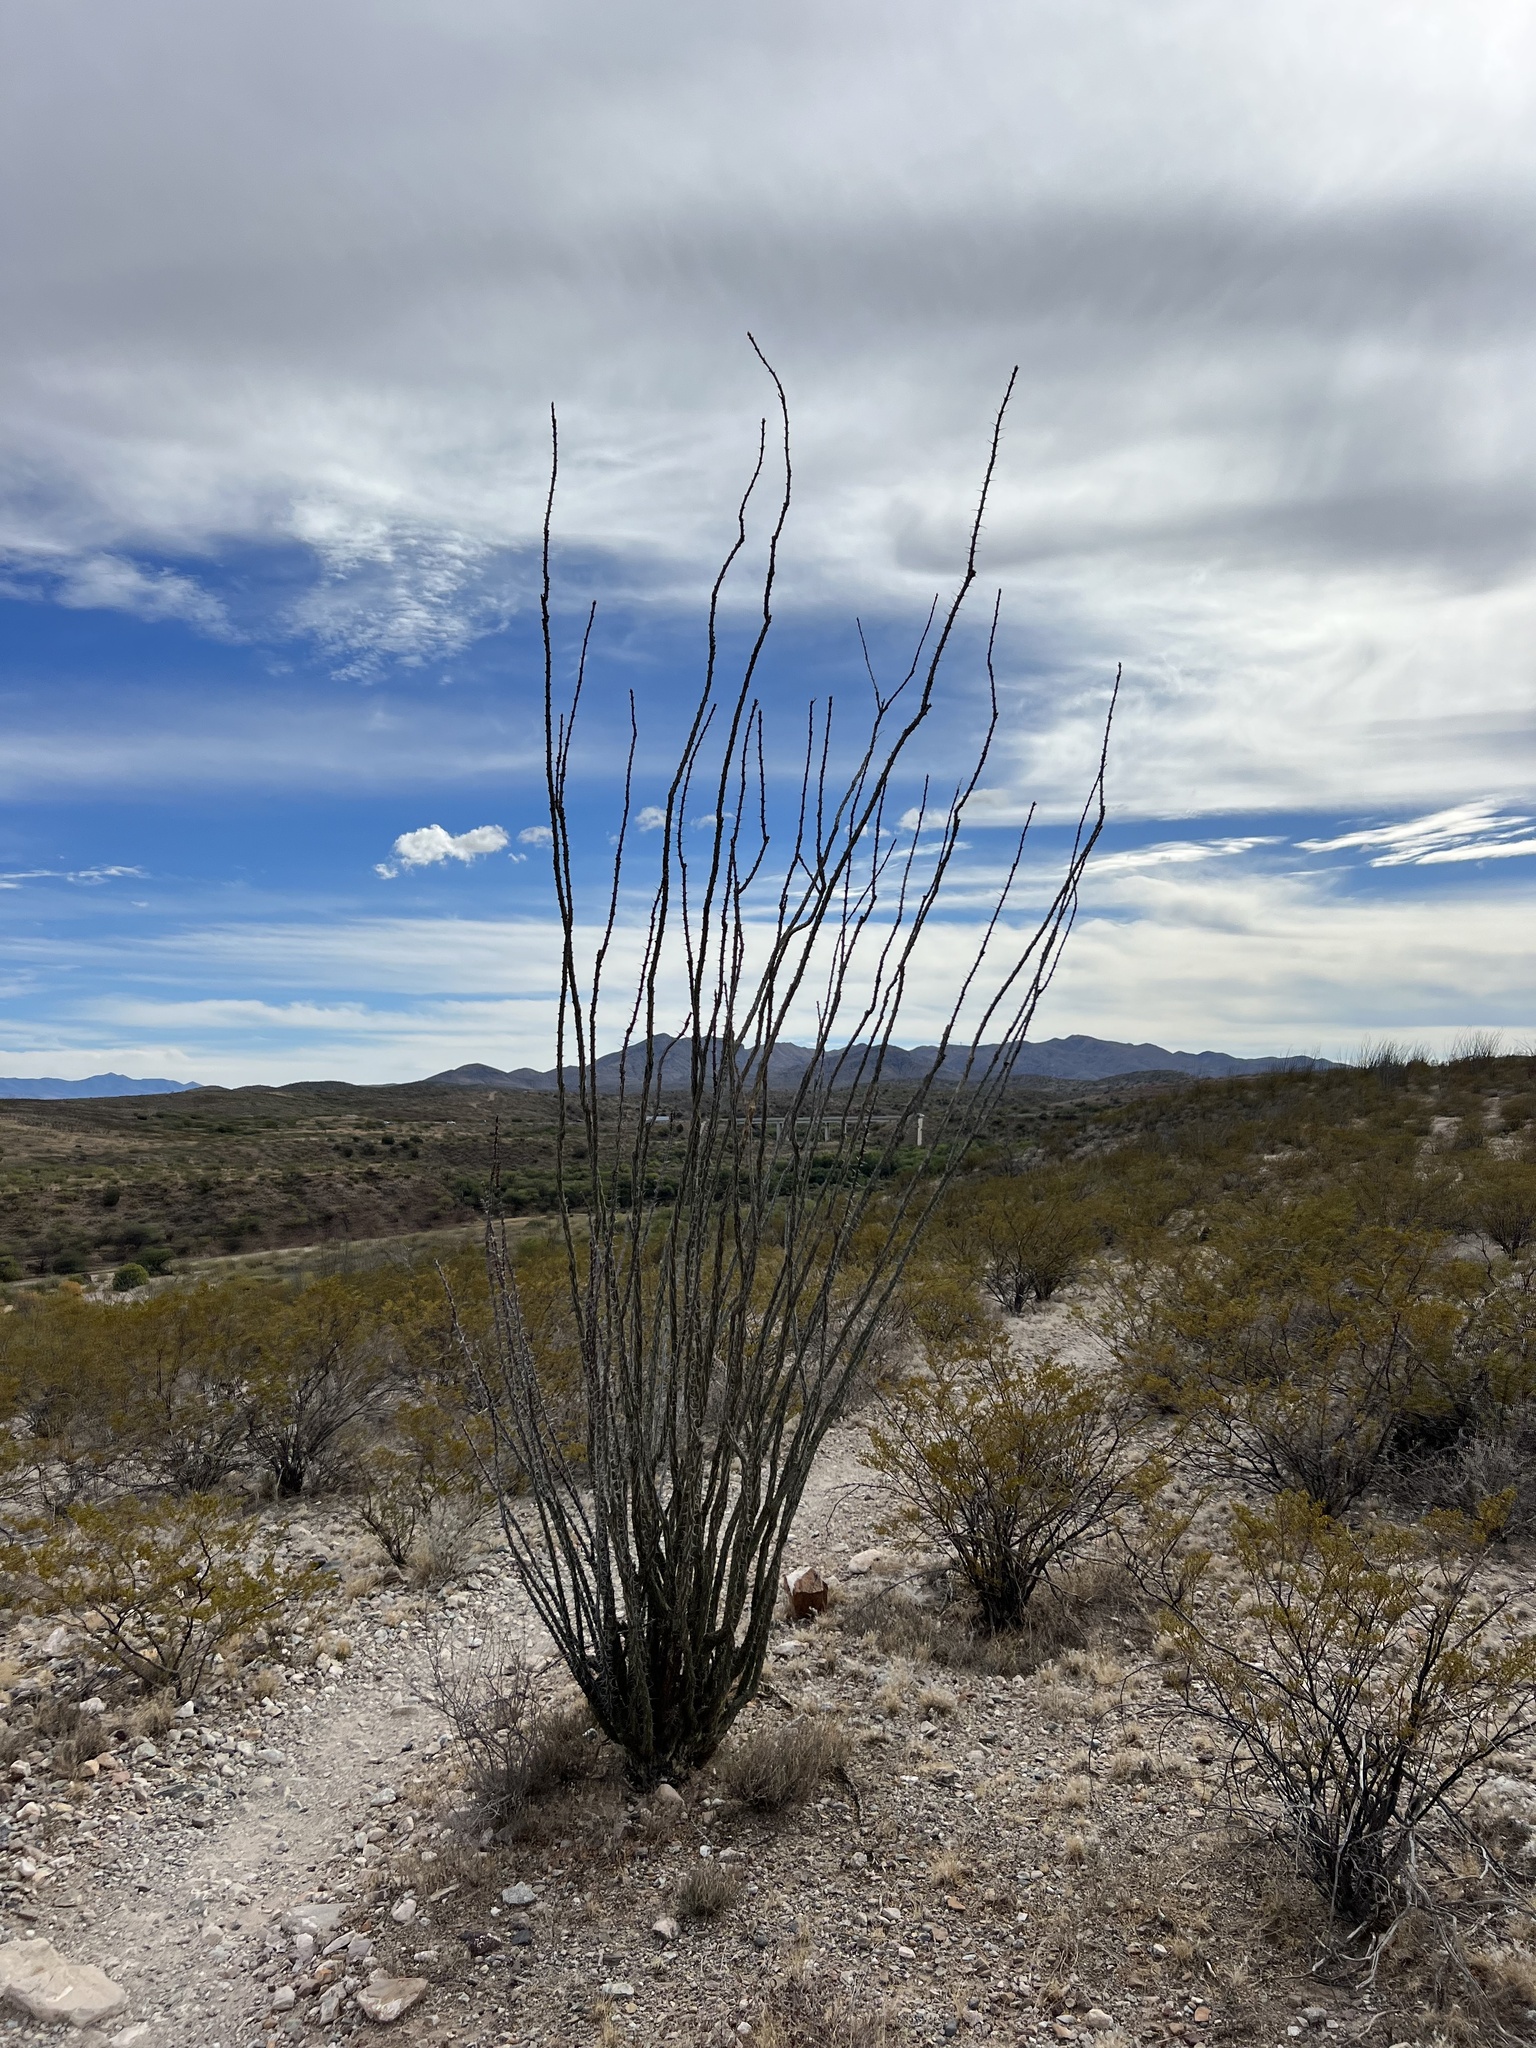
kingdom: Plantae
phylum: Tracheophyta
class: Magnoliopsida
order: Ericales
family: Fouquieriaceae
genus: Fouquieria
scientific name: Fouquieria splendens
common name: Vine-cactus
